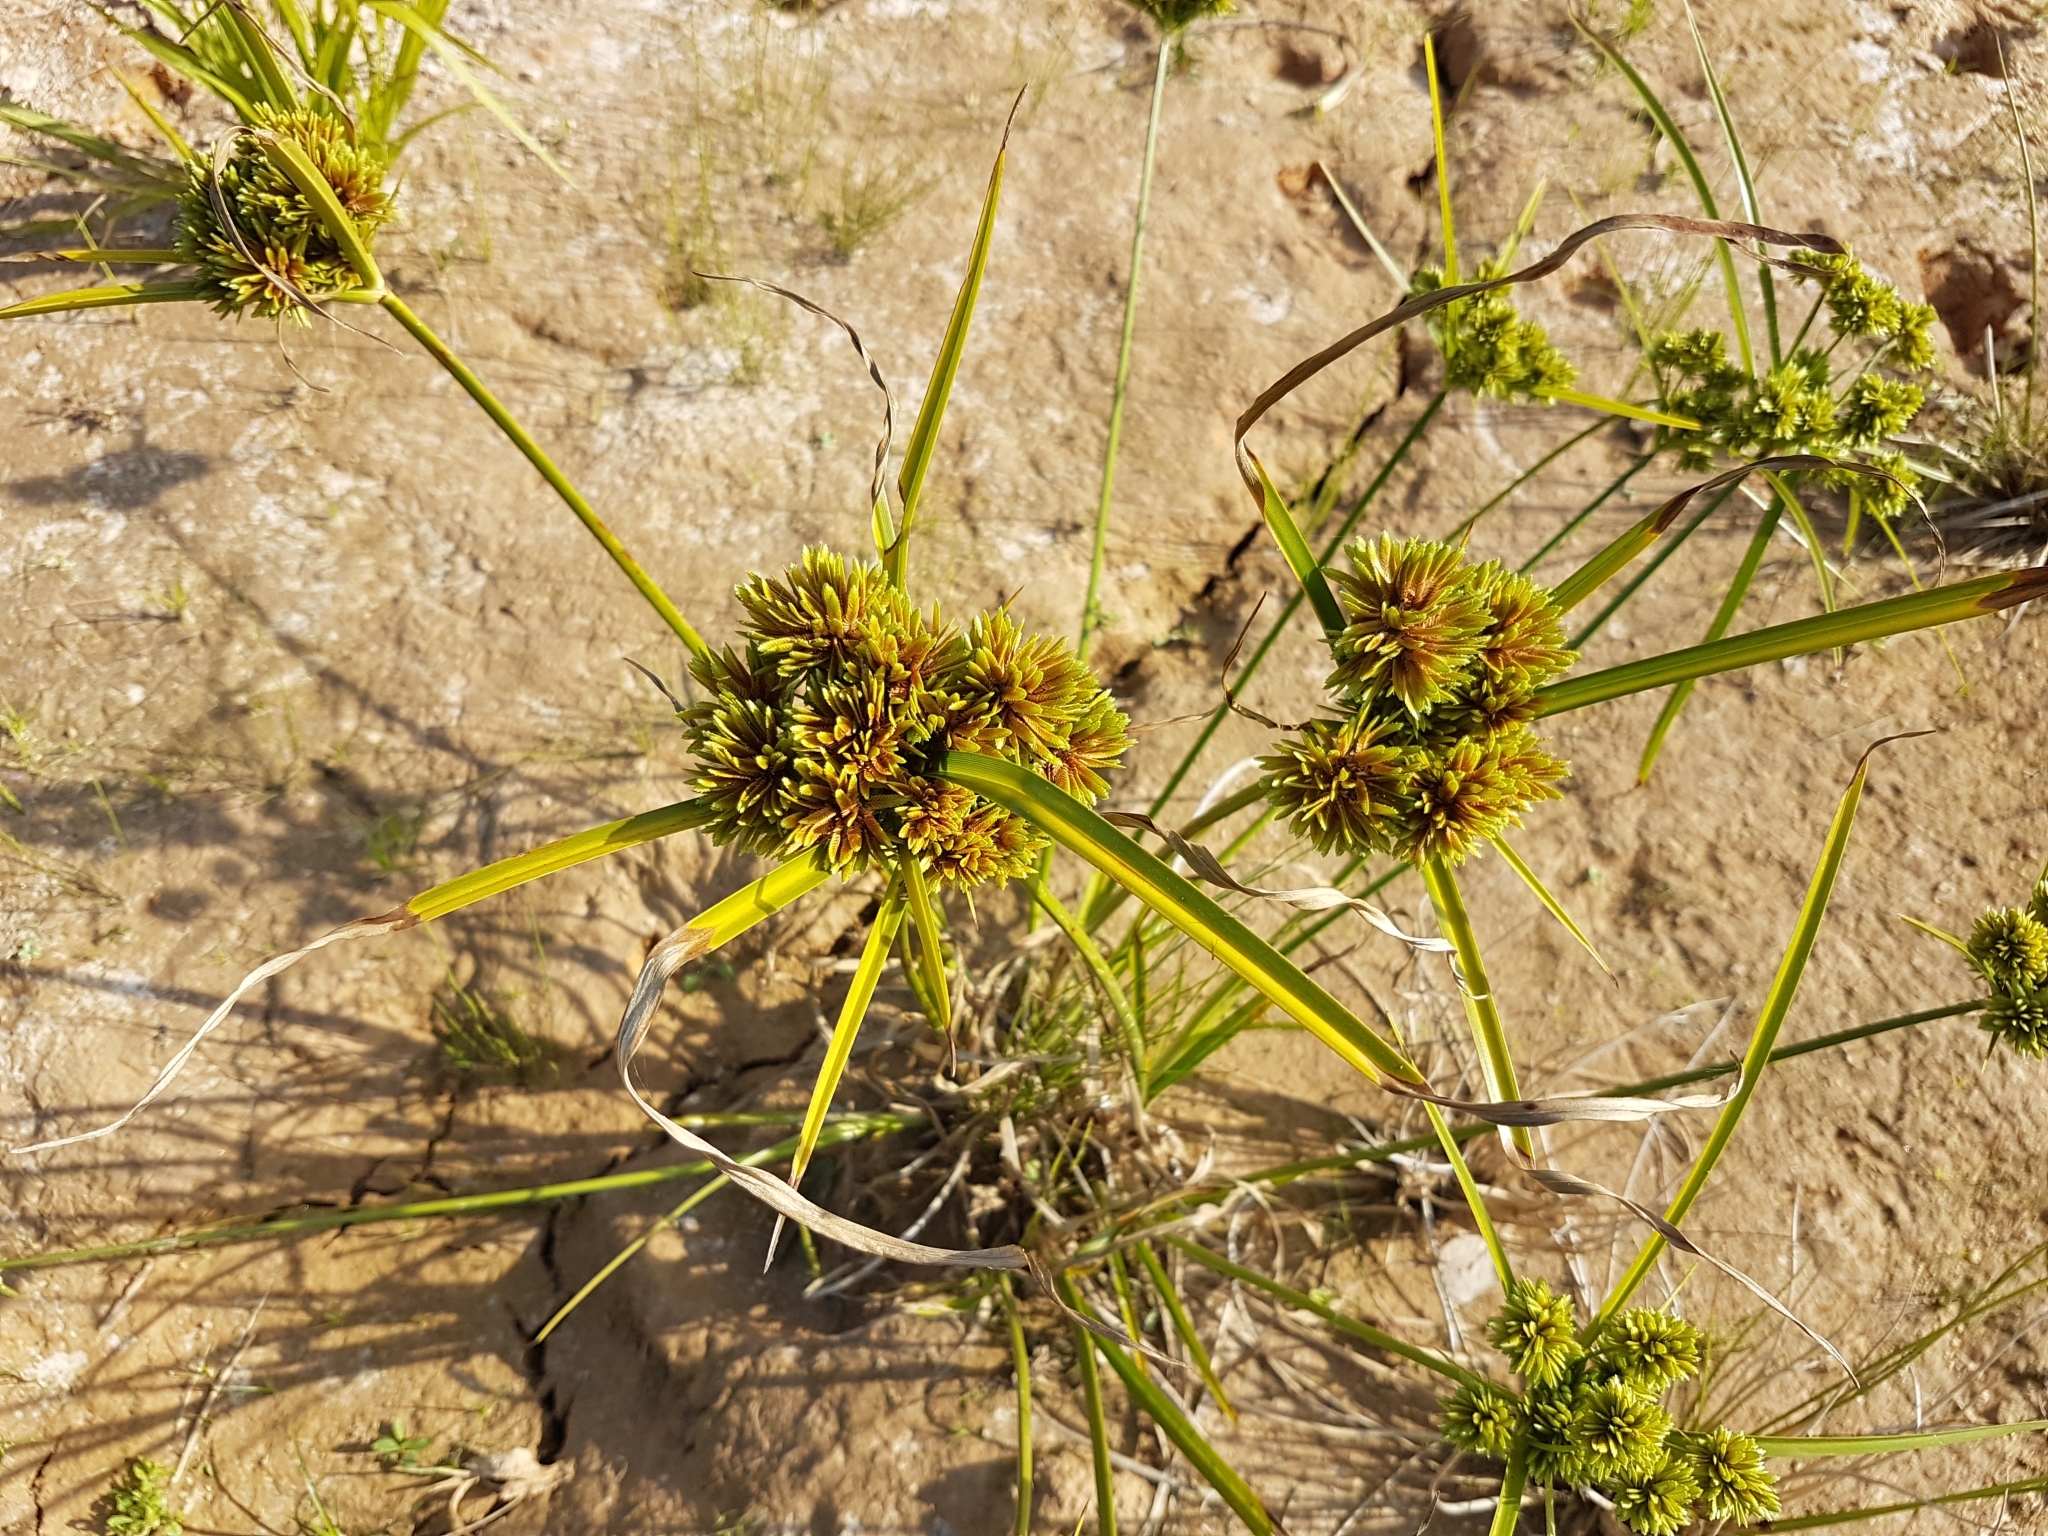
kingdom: Plantae
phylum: Tracheophyta
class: Liliopsida
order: Poales
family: Cyperaceae
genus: Cyperus
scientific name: Cyperus eragrostis
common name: Tall flatsedge
